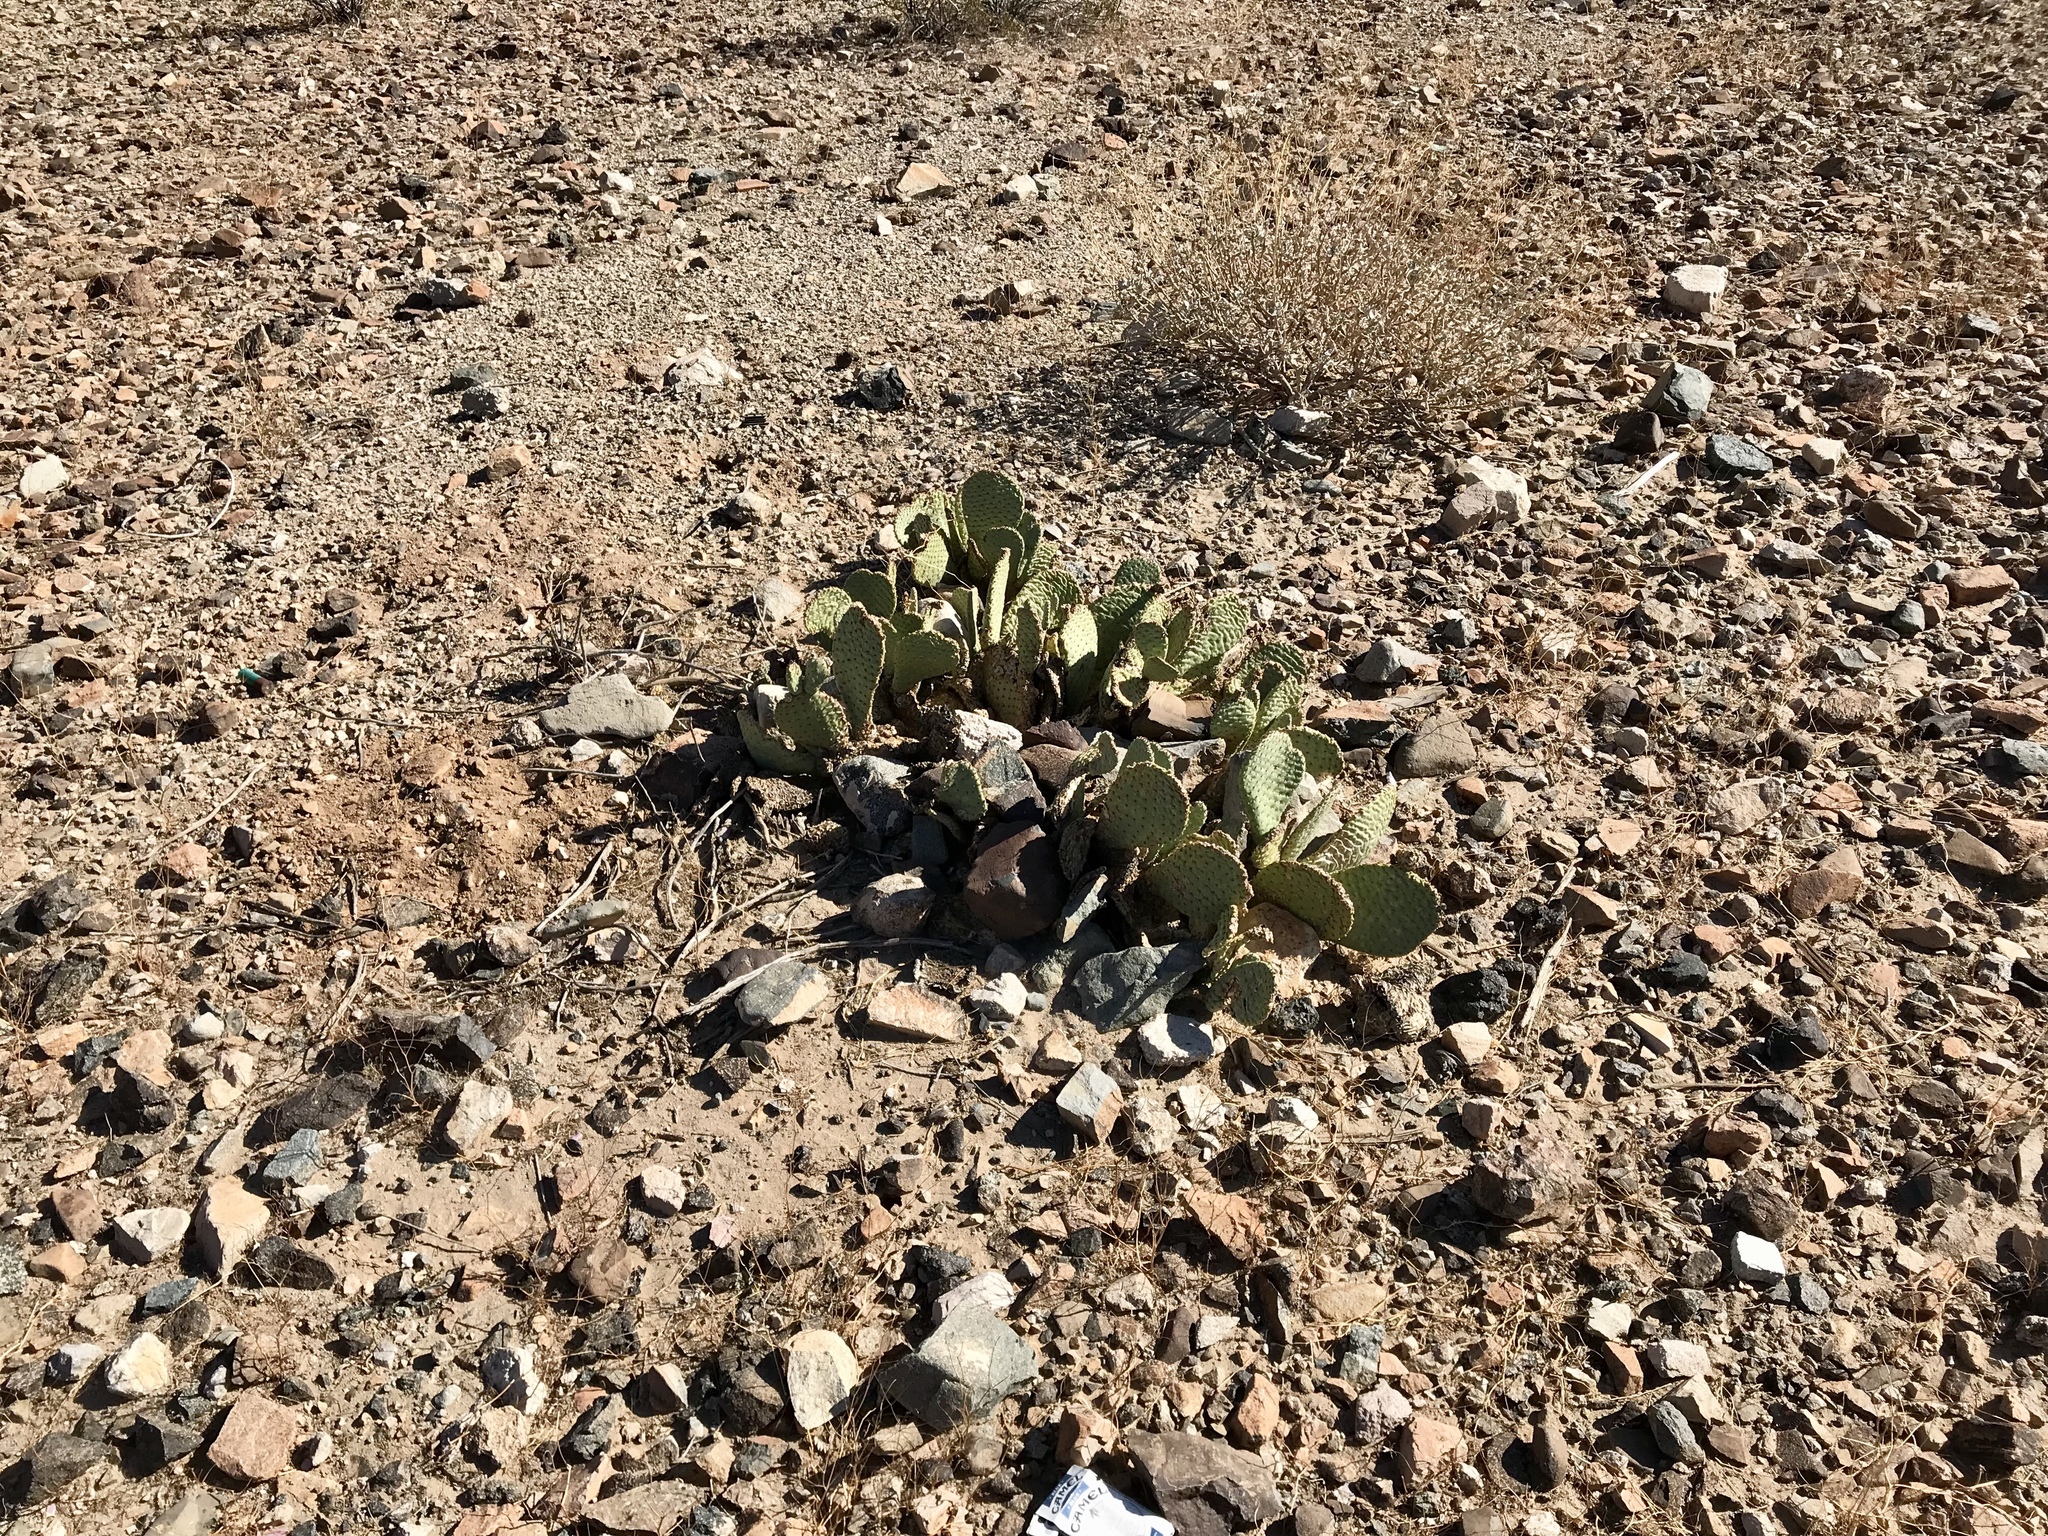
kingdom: Plantae
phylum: Tracheophyta
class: Magnoliopsida
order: Caryophyllales
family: Cactaceae
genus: Opuntia
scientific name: Opuntia basilaris
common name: Beavertail prickly-pear
